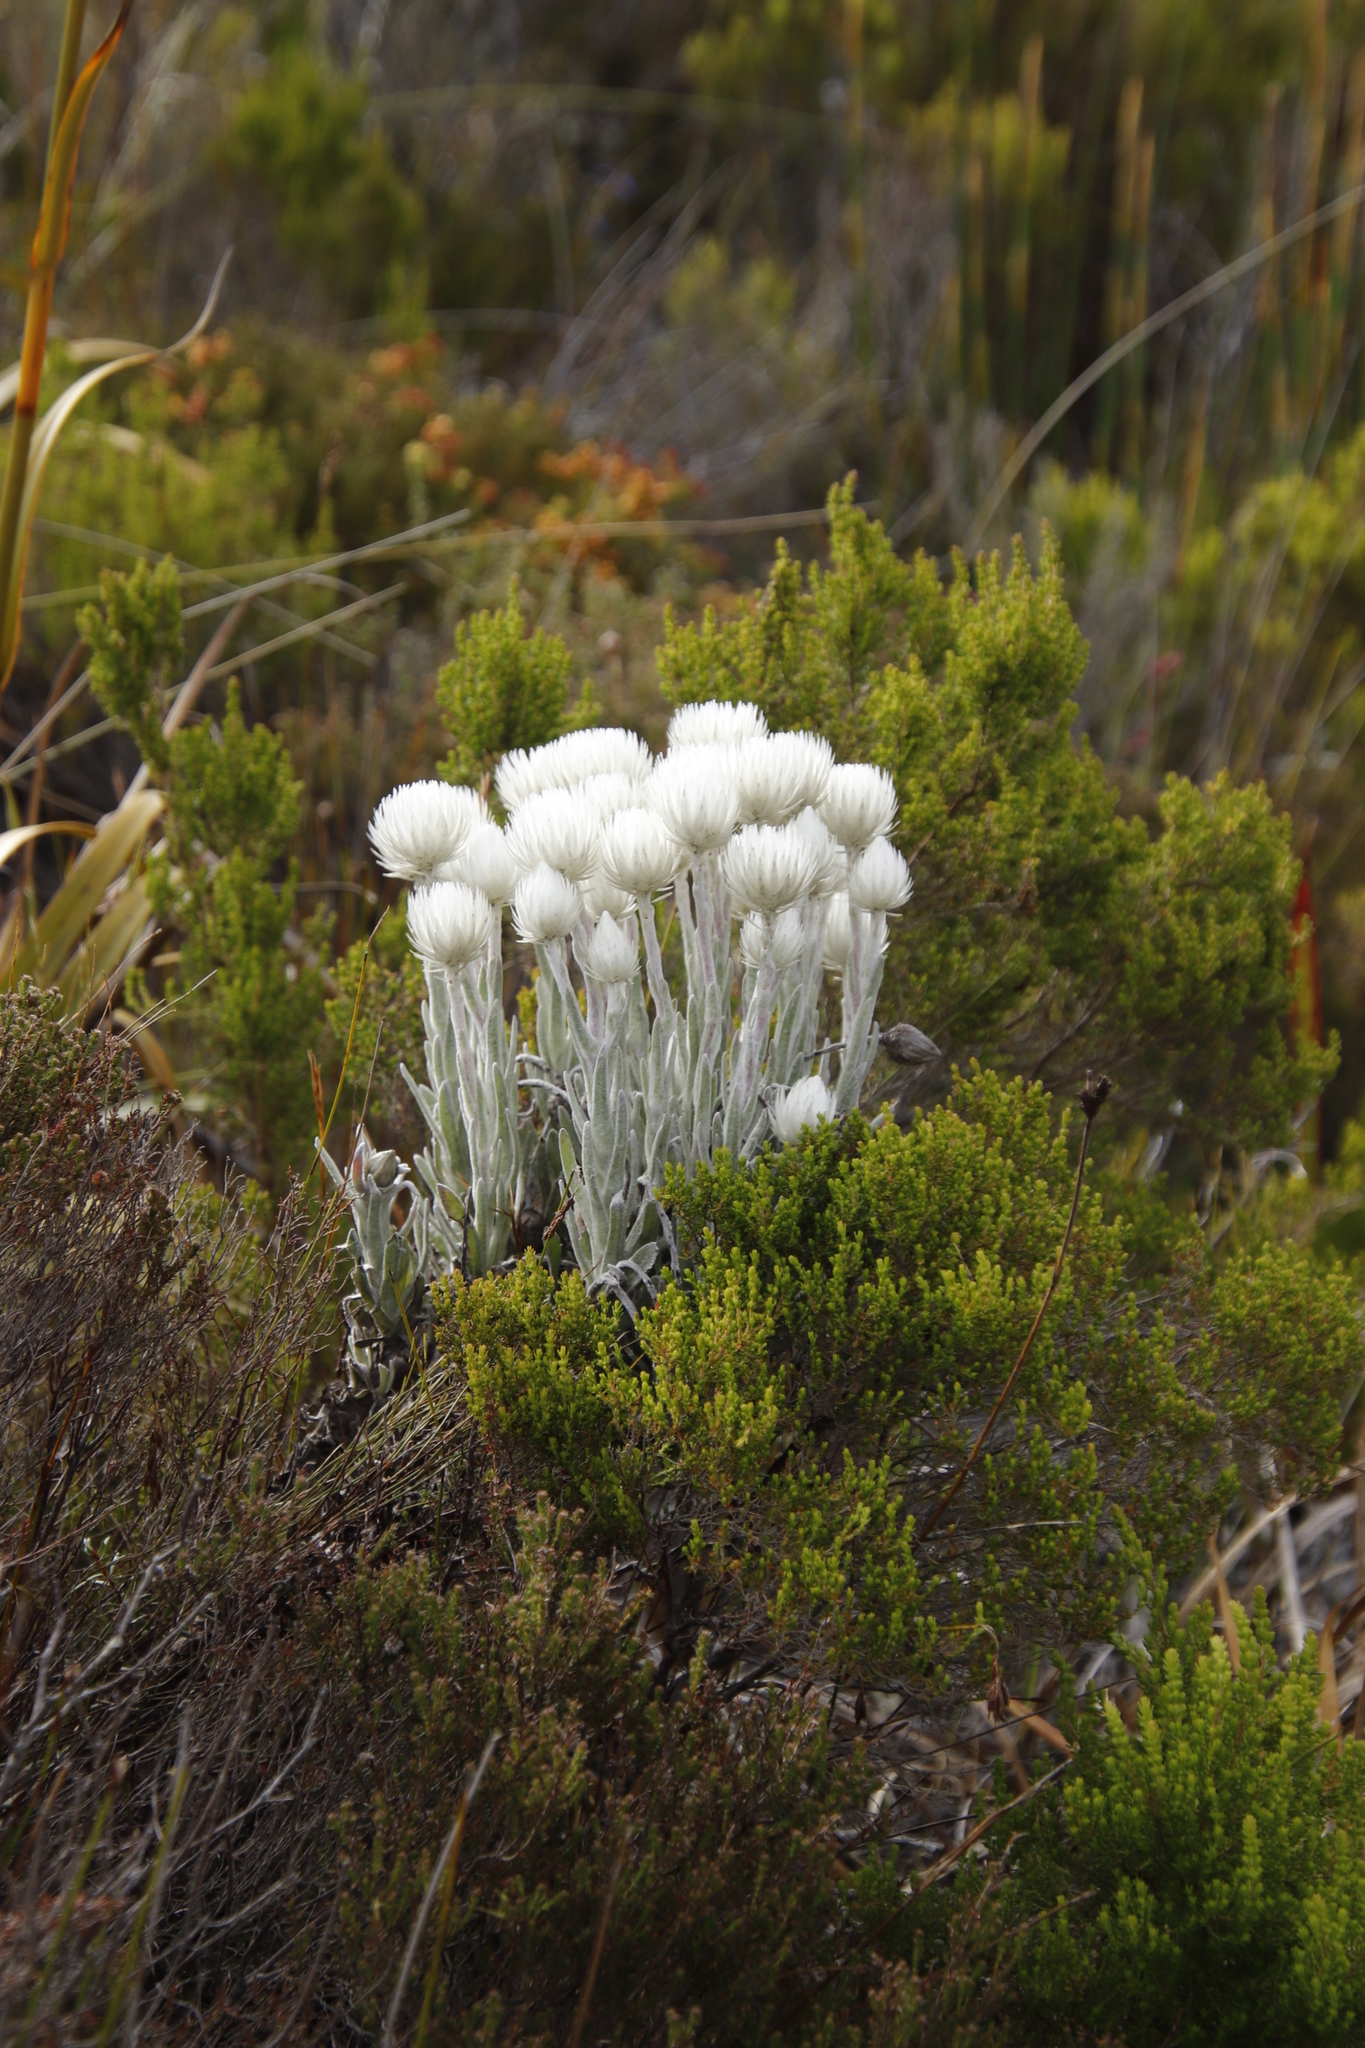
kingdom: Plantae
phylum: Tracheophyta
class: Magnoliopsida
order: Asterales
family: Asteraceae
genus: Syncarpha
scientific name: Syncarpha vestita
